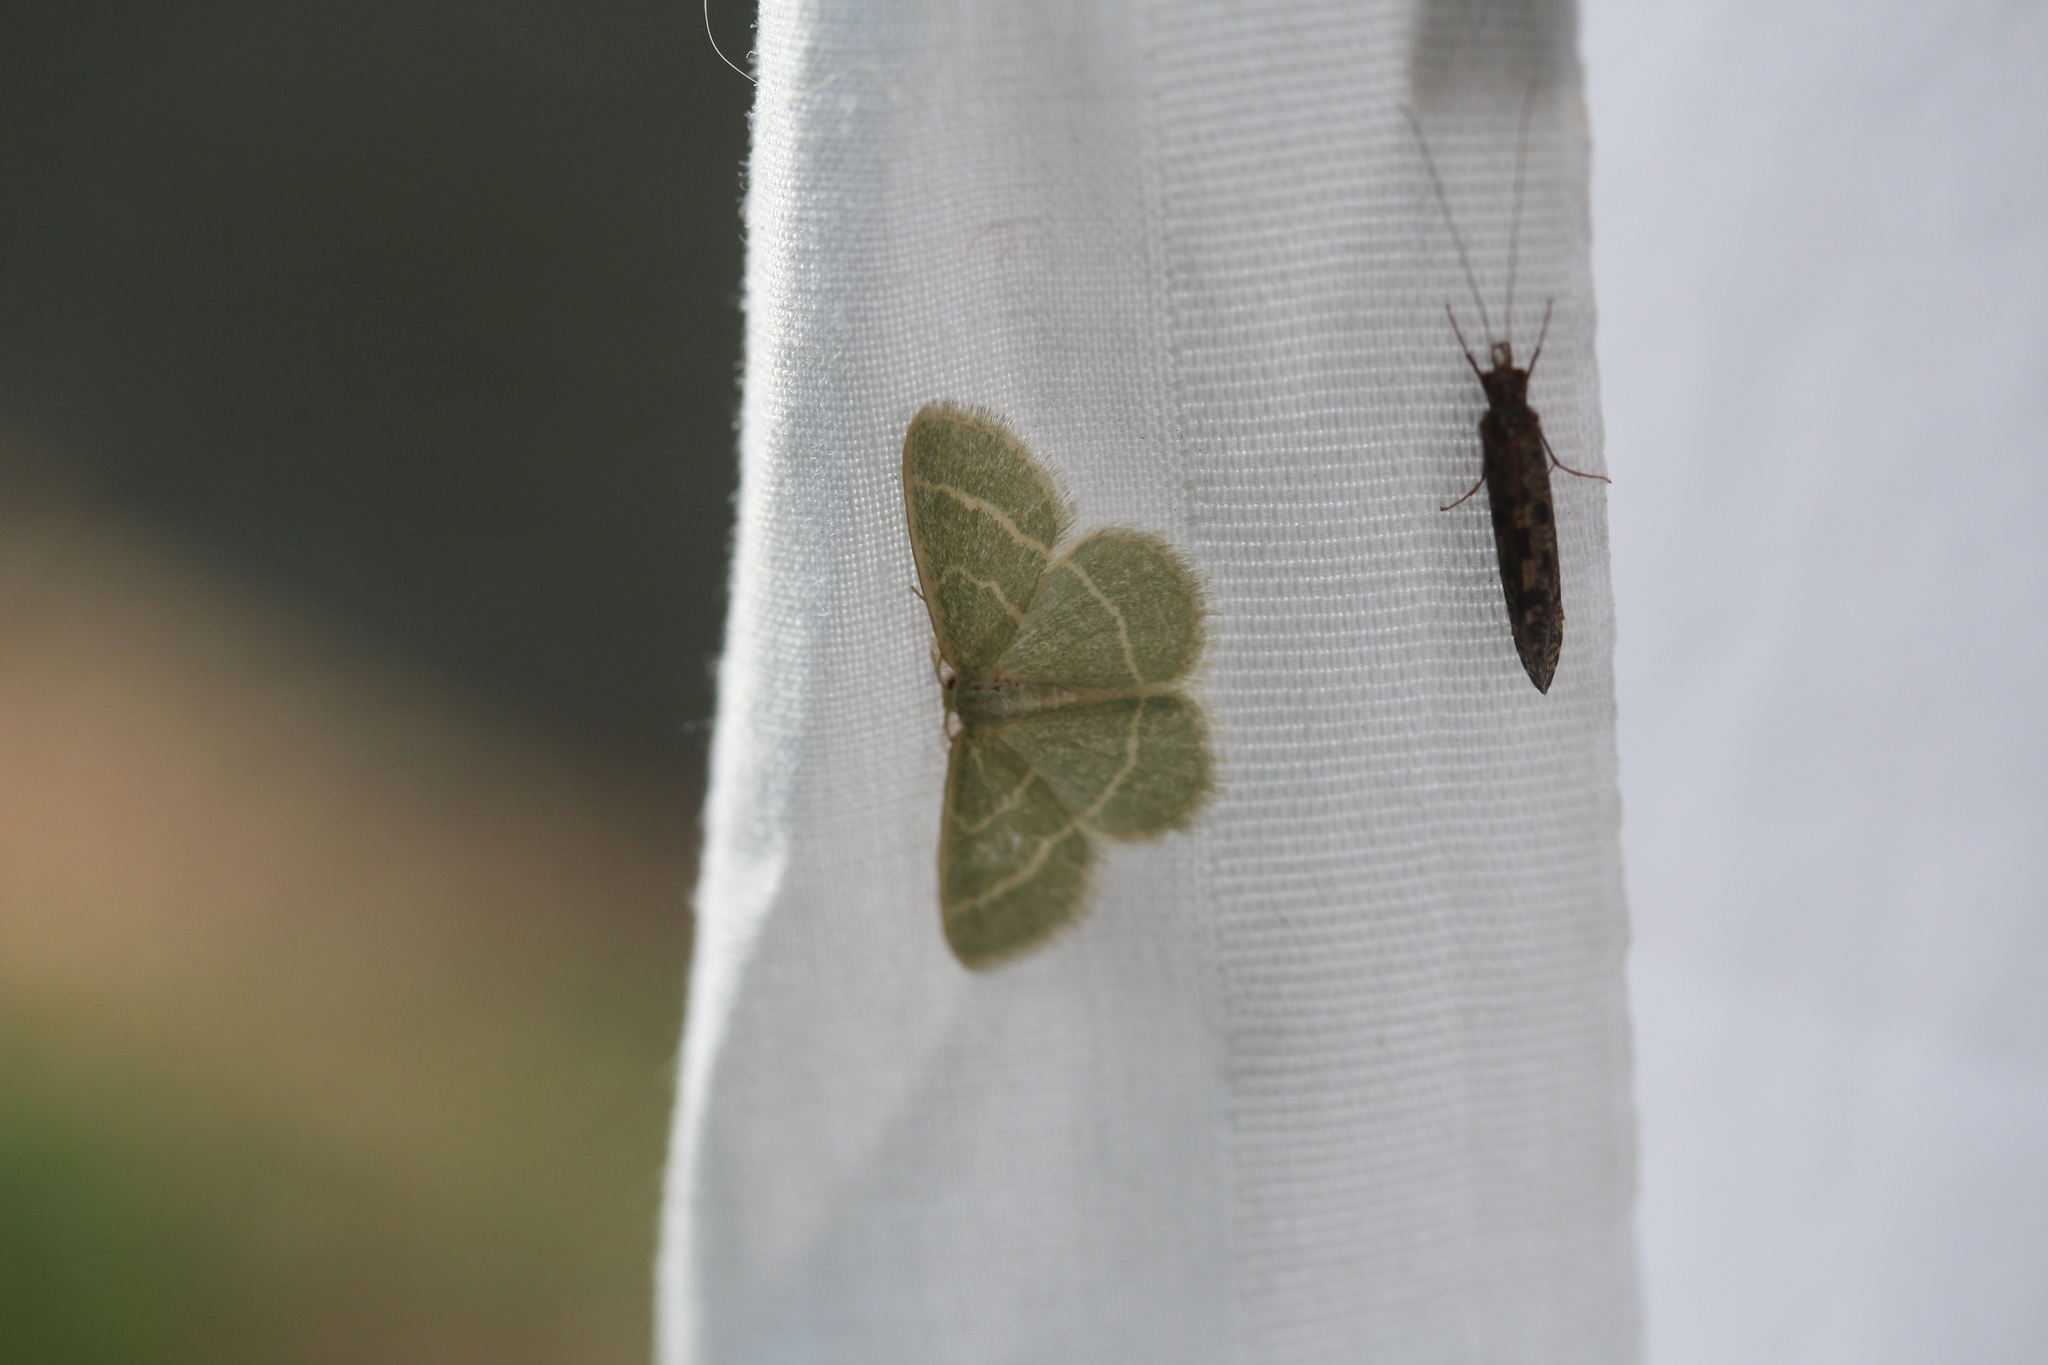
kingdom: Animalia
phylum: Arthropoda
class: Insecta
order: Lepidoptera
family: Geometridae
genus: Chlorochlamys
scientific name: Chlorochlamys chloroleucaria
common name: Blackberry looper
